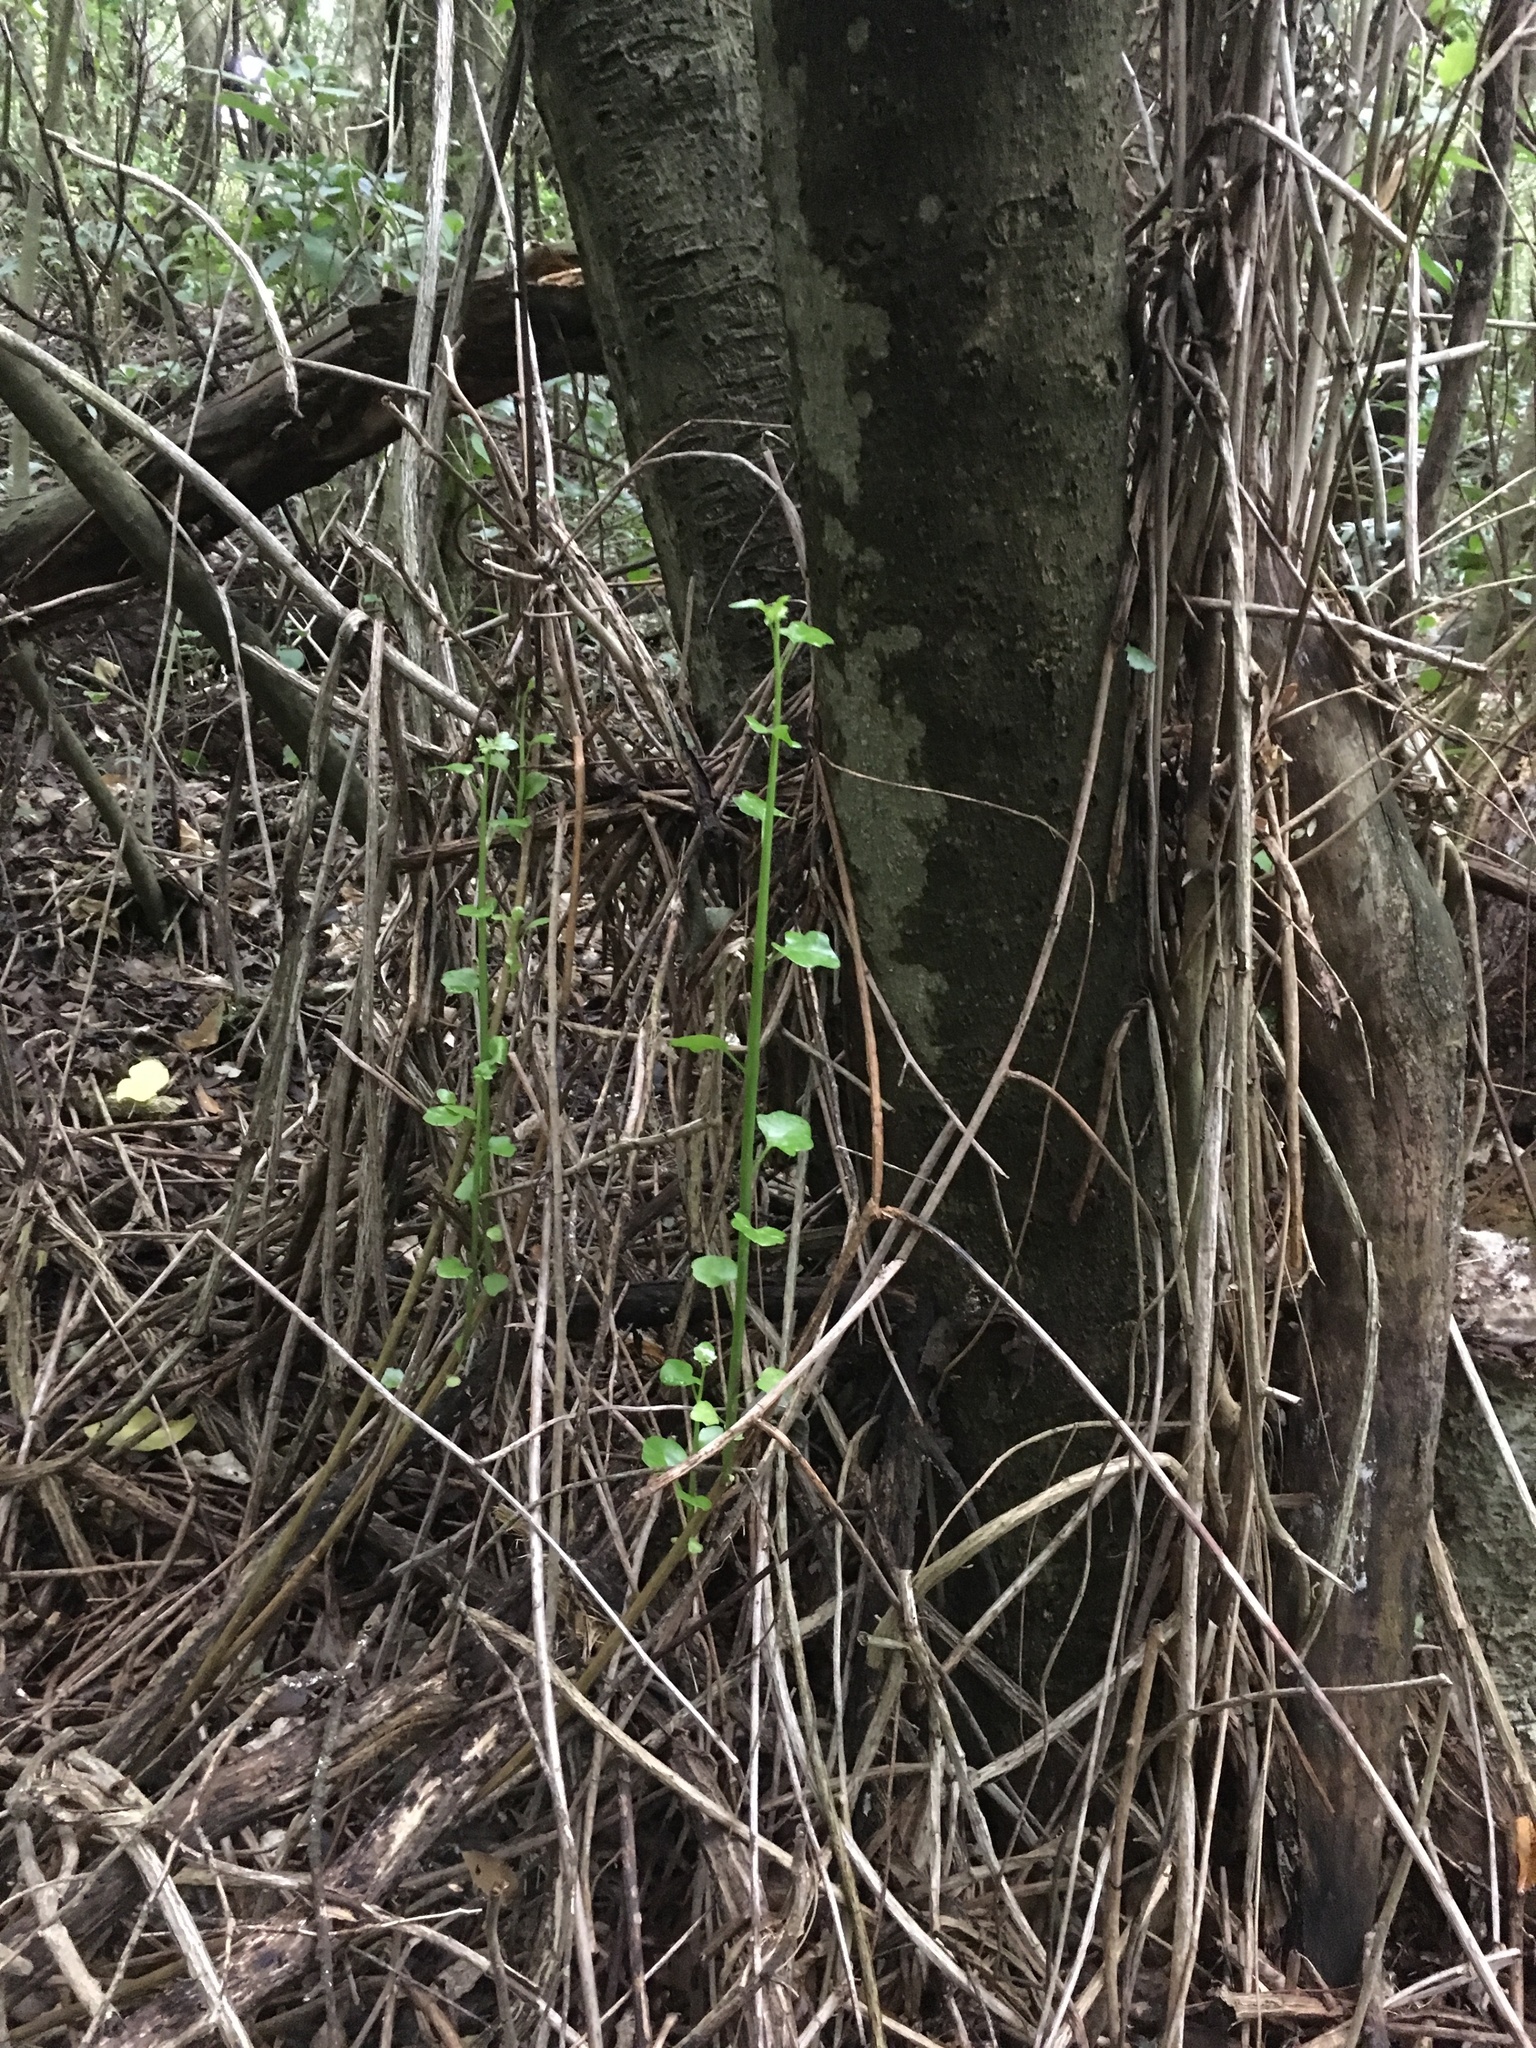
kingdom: Plantae
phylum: Tracheophyta
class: Magnoliopsida
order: Asterales
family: Asteraceae
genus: Senecio
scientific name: Senecio angulatus
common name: Climbing groundsel
